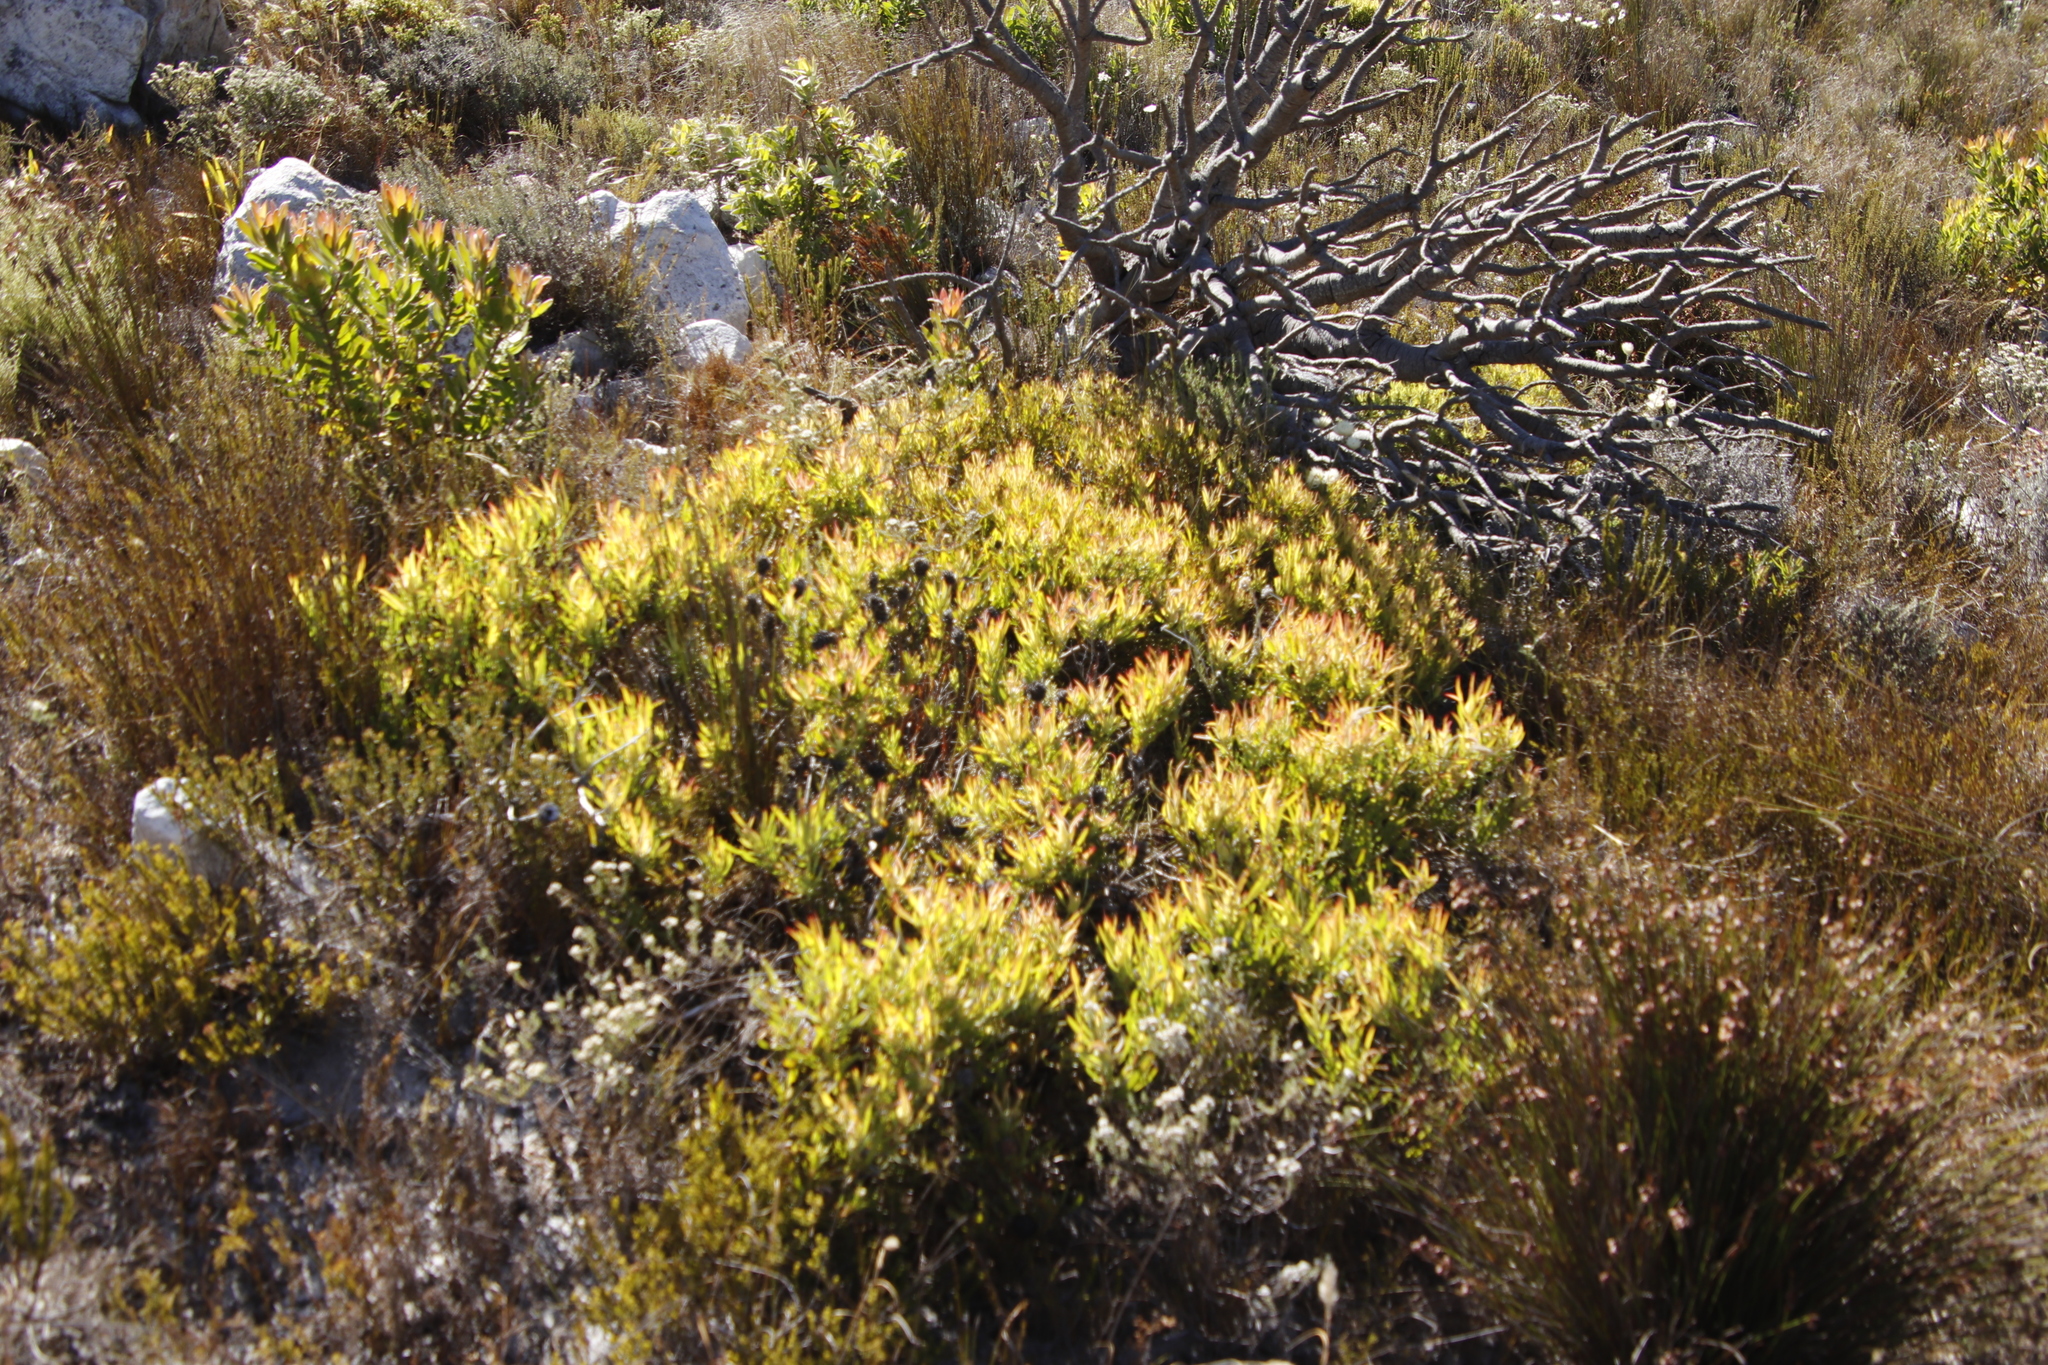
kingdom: Plantae
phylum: Tracheophyta
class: Magnoliopsida
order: Proteales
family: Proteaceae
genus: Leucadendron
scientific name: Leucadendron salignum
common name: Common sunshine conebush
